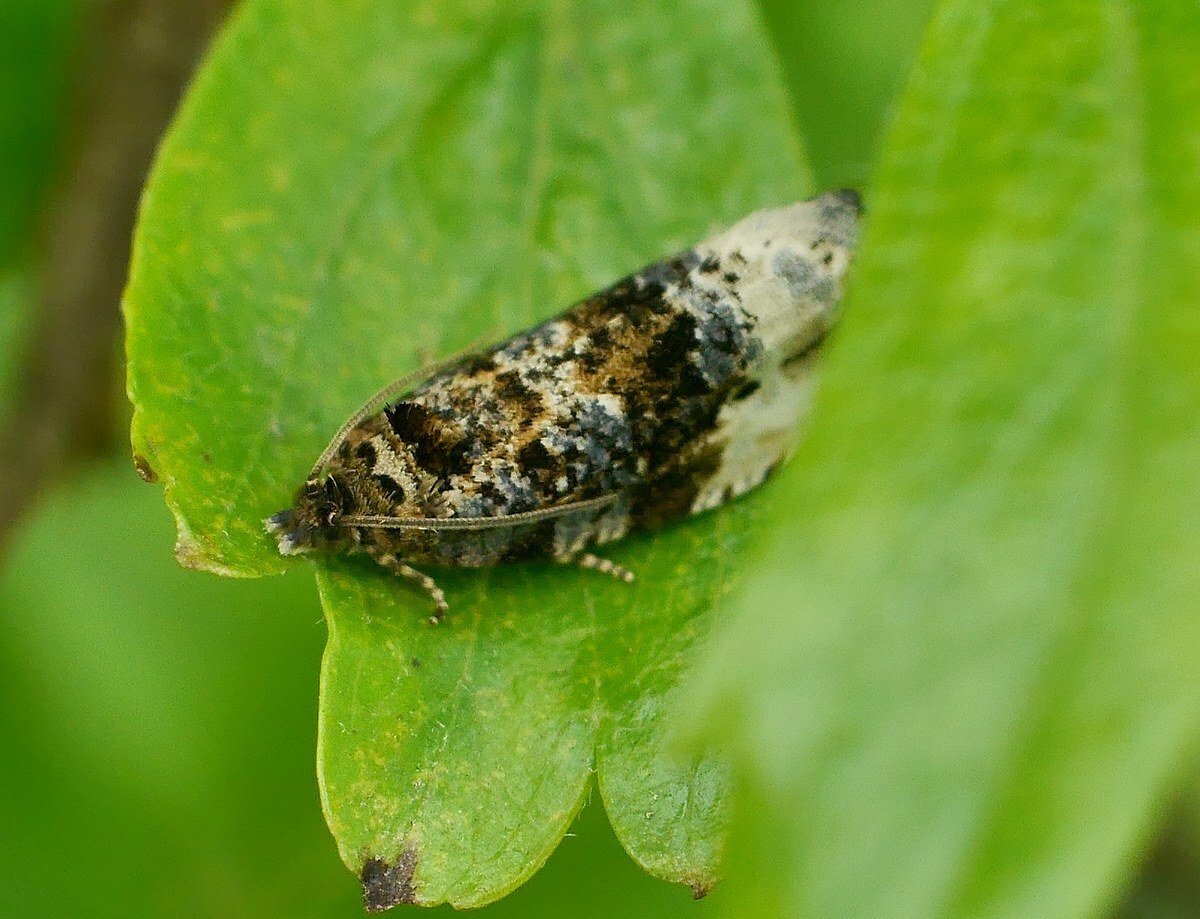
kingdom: Animalia
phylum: Arthropoda
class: Insecta
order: Lepidoptera
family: Tortricidae
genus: Hedya
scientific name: Hedya nubiferana
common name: Marbled orchard tortrix
